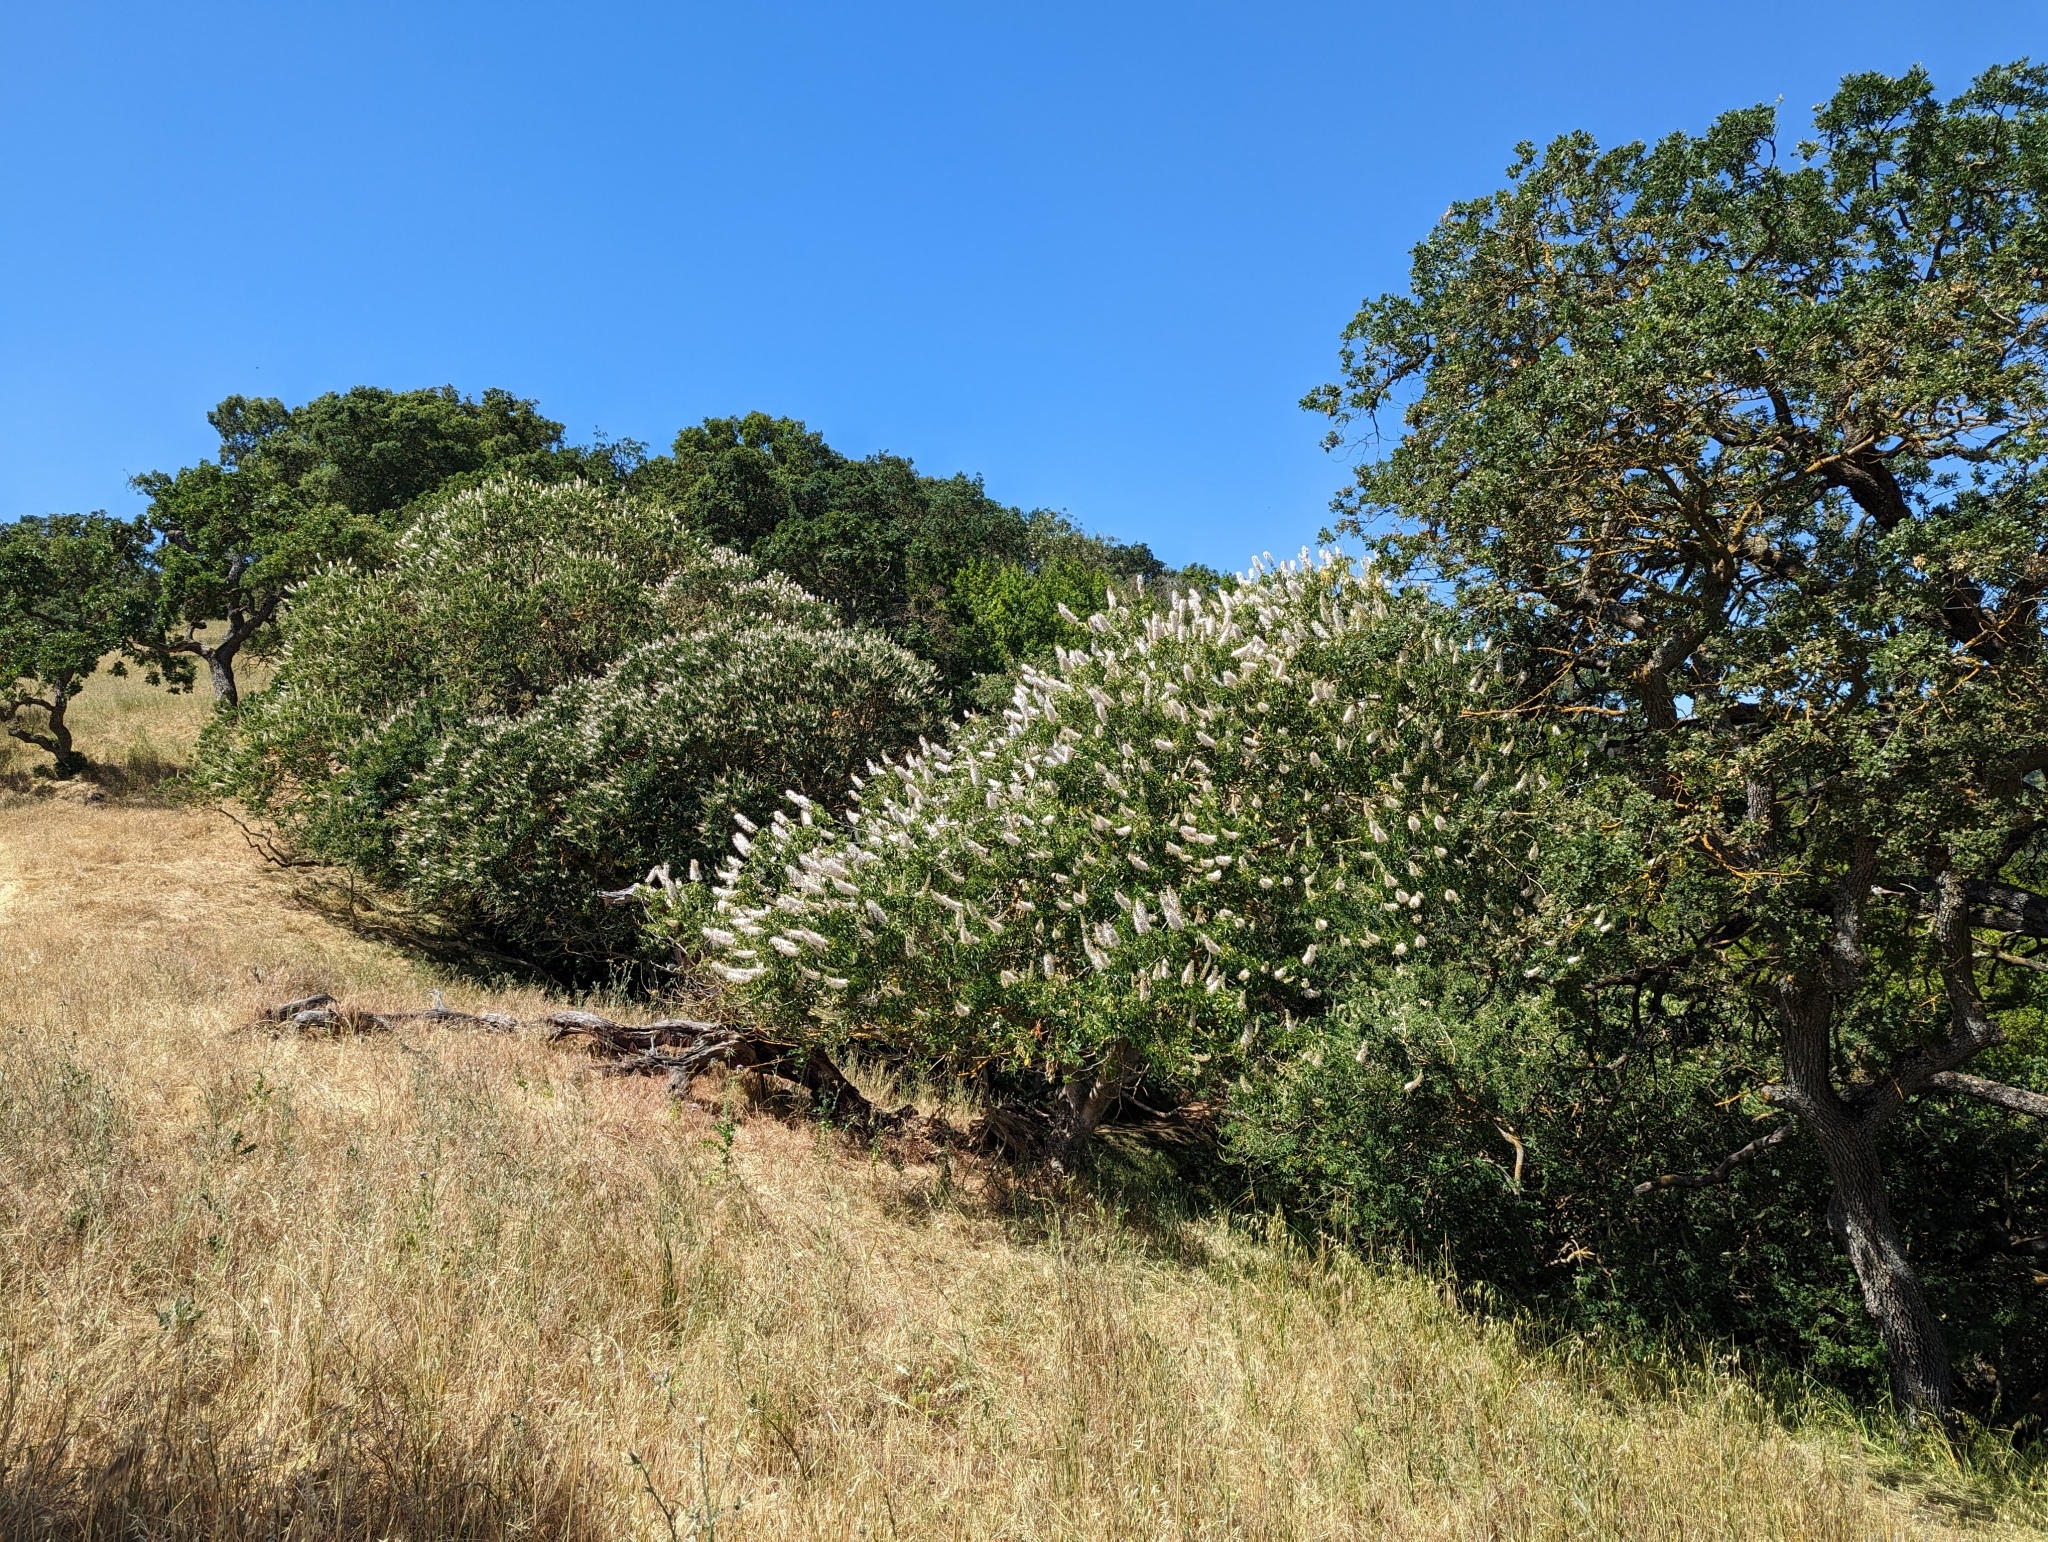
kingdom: Plantae
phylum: Tracheophyta
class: Magnoliopsida
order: Sapindales
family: Sapindaceae
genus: Aesculus
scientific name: Aesculus californica
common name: California buckeye
